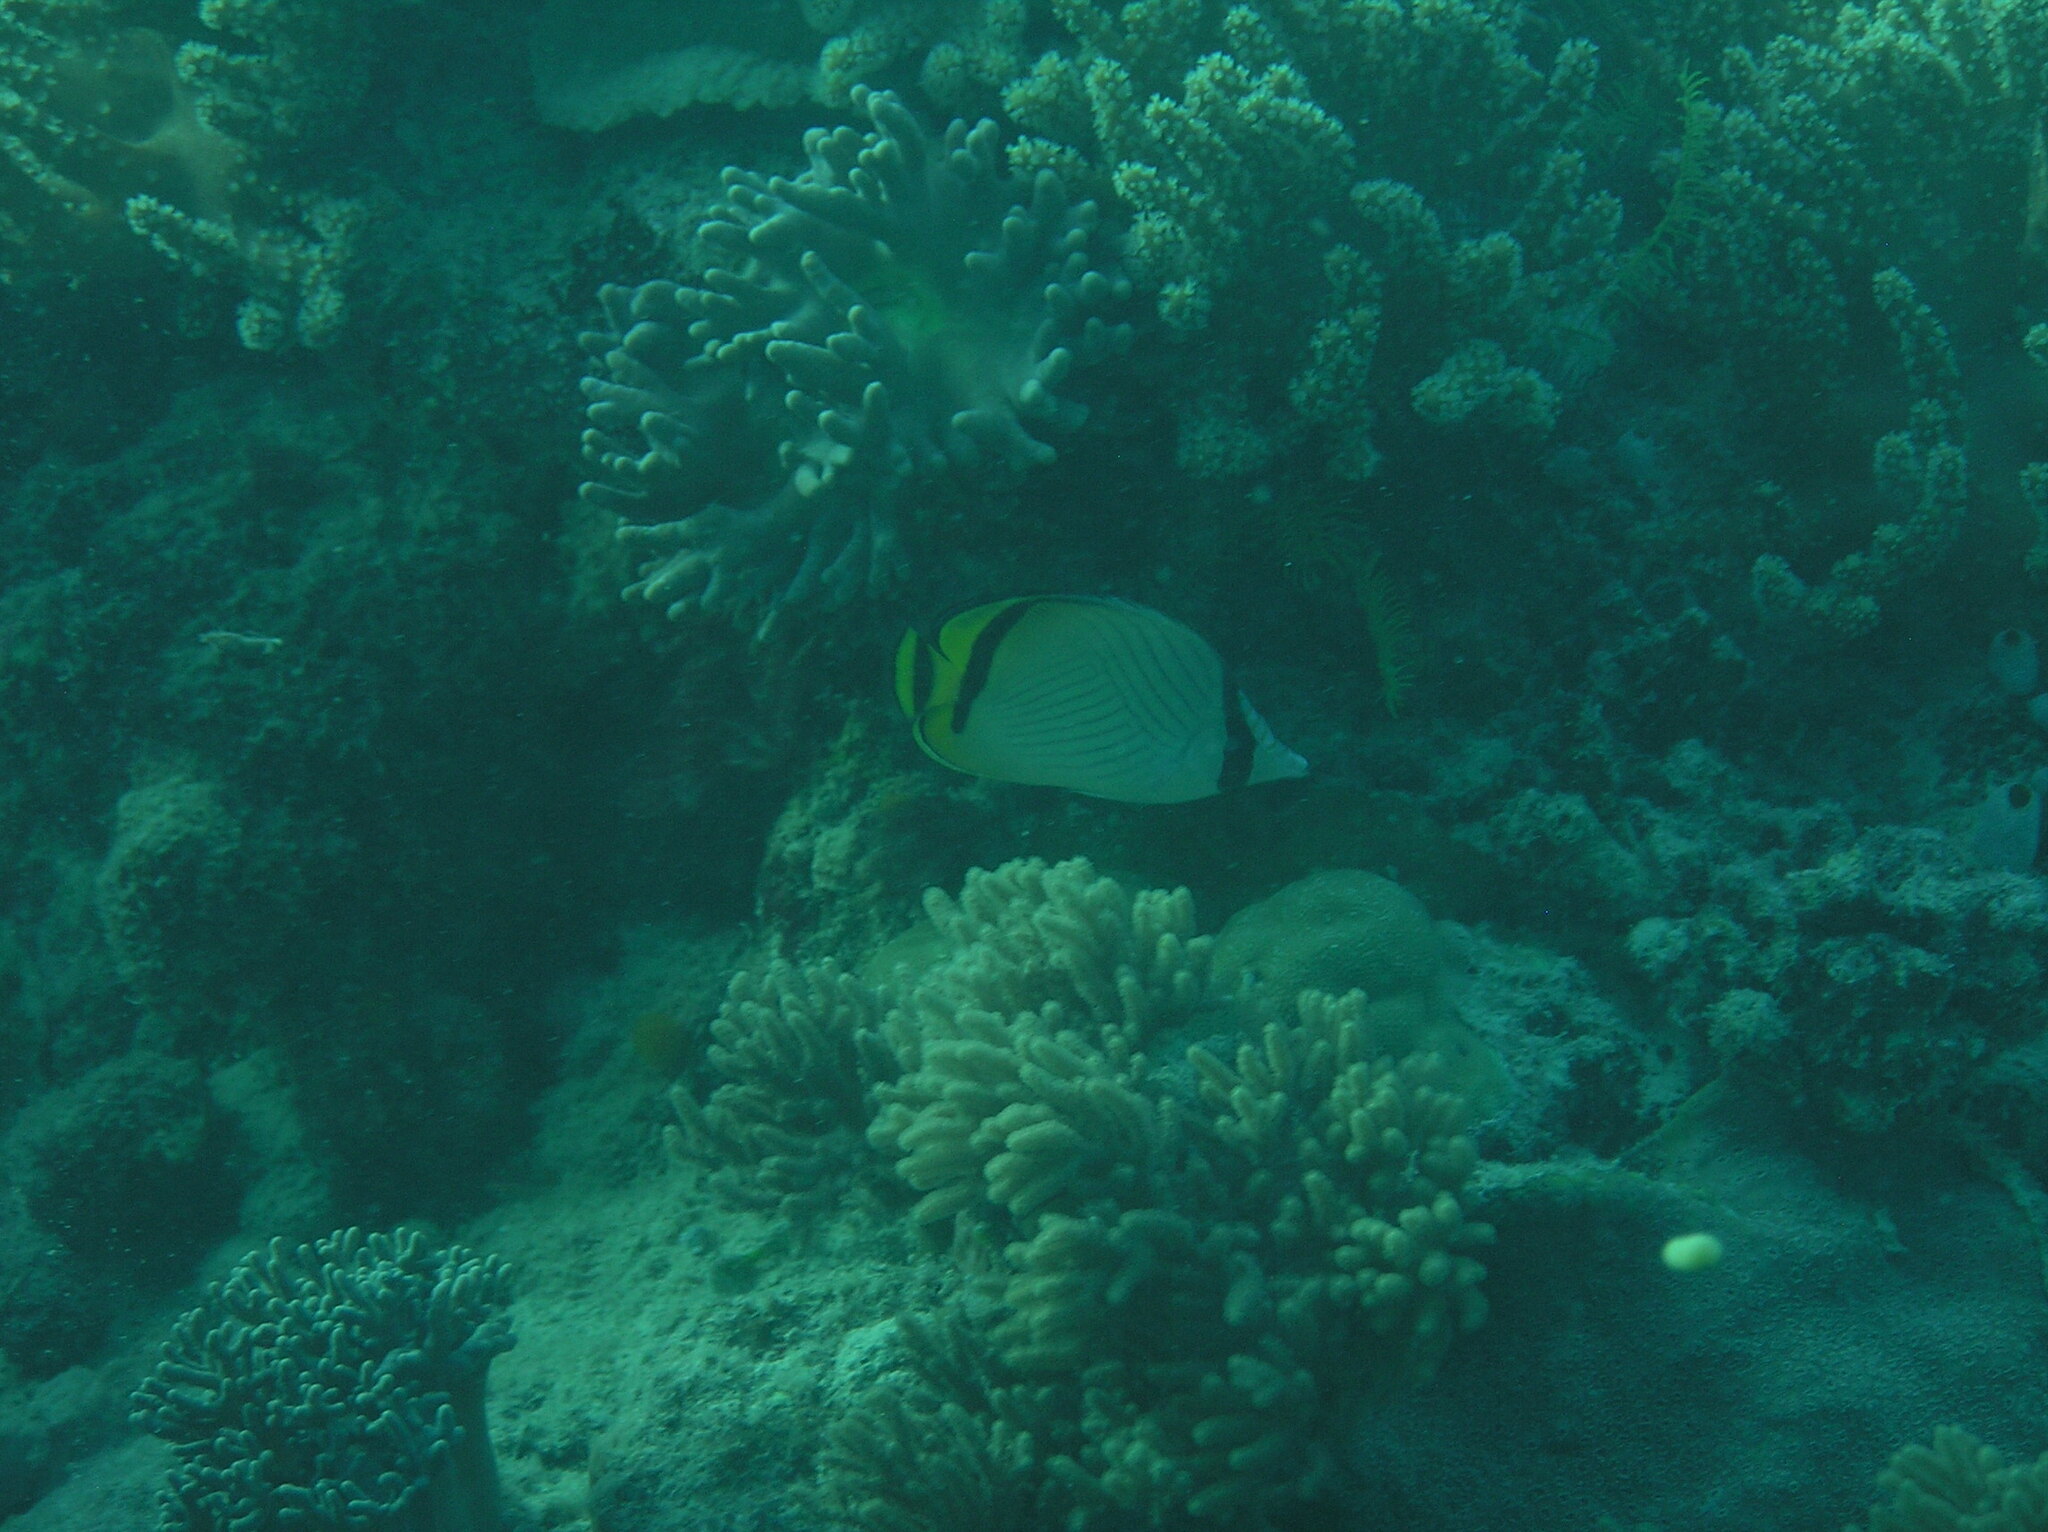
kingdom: Animalia
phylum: Chordata
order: Perciformes
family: Chaetodontidae
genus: Chaetodon
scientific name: Chaetodon vagabundus
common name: Vagabond butterflyfish
